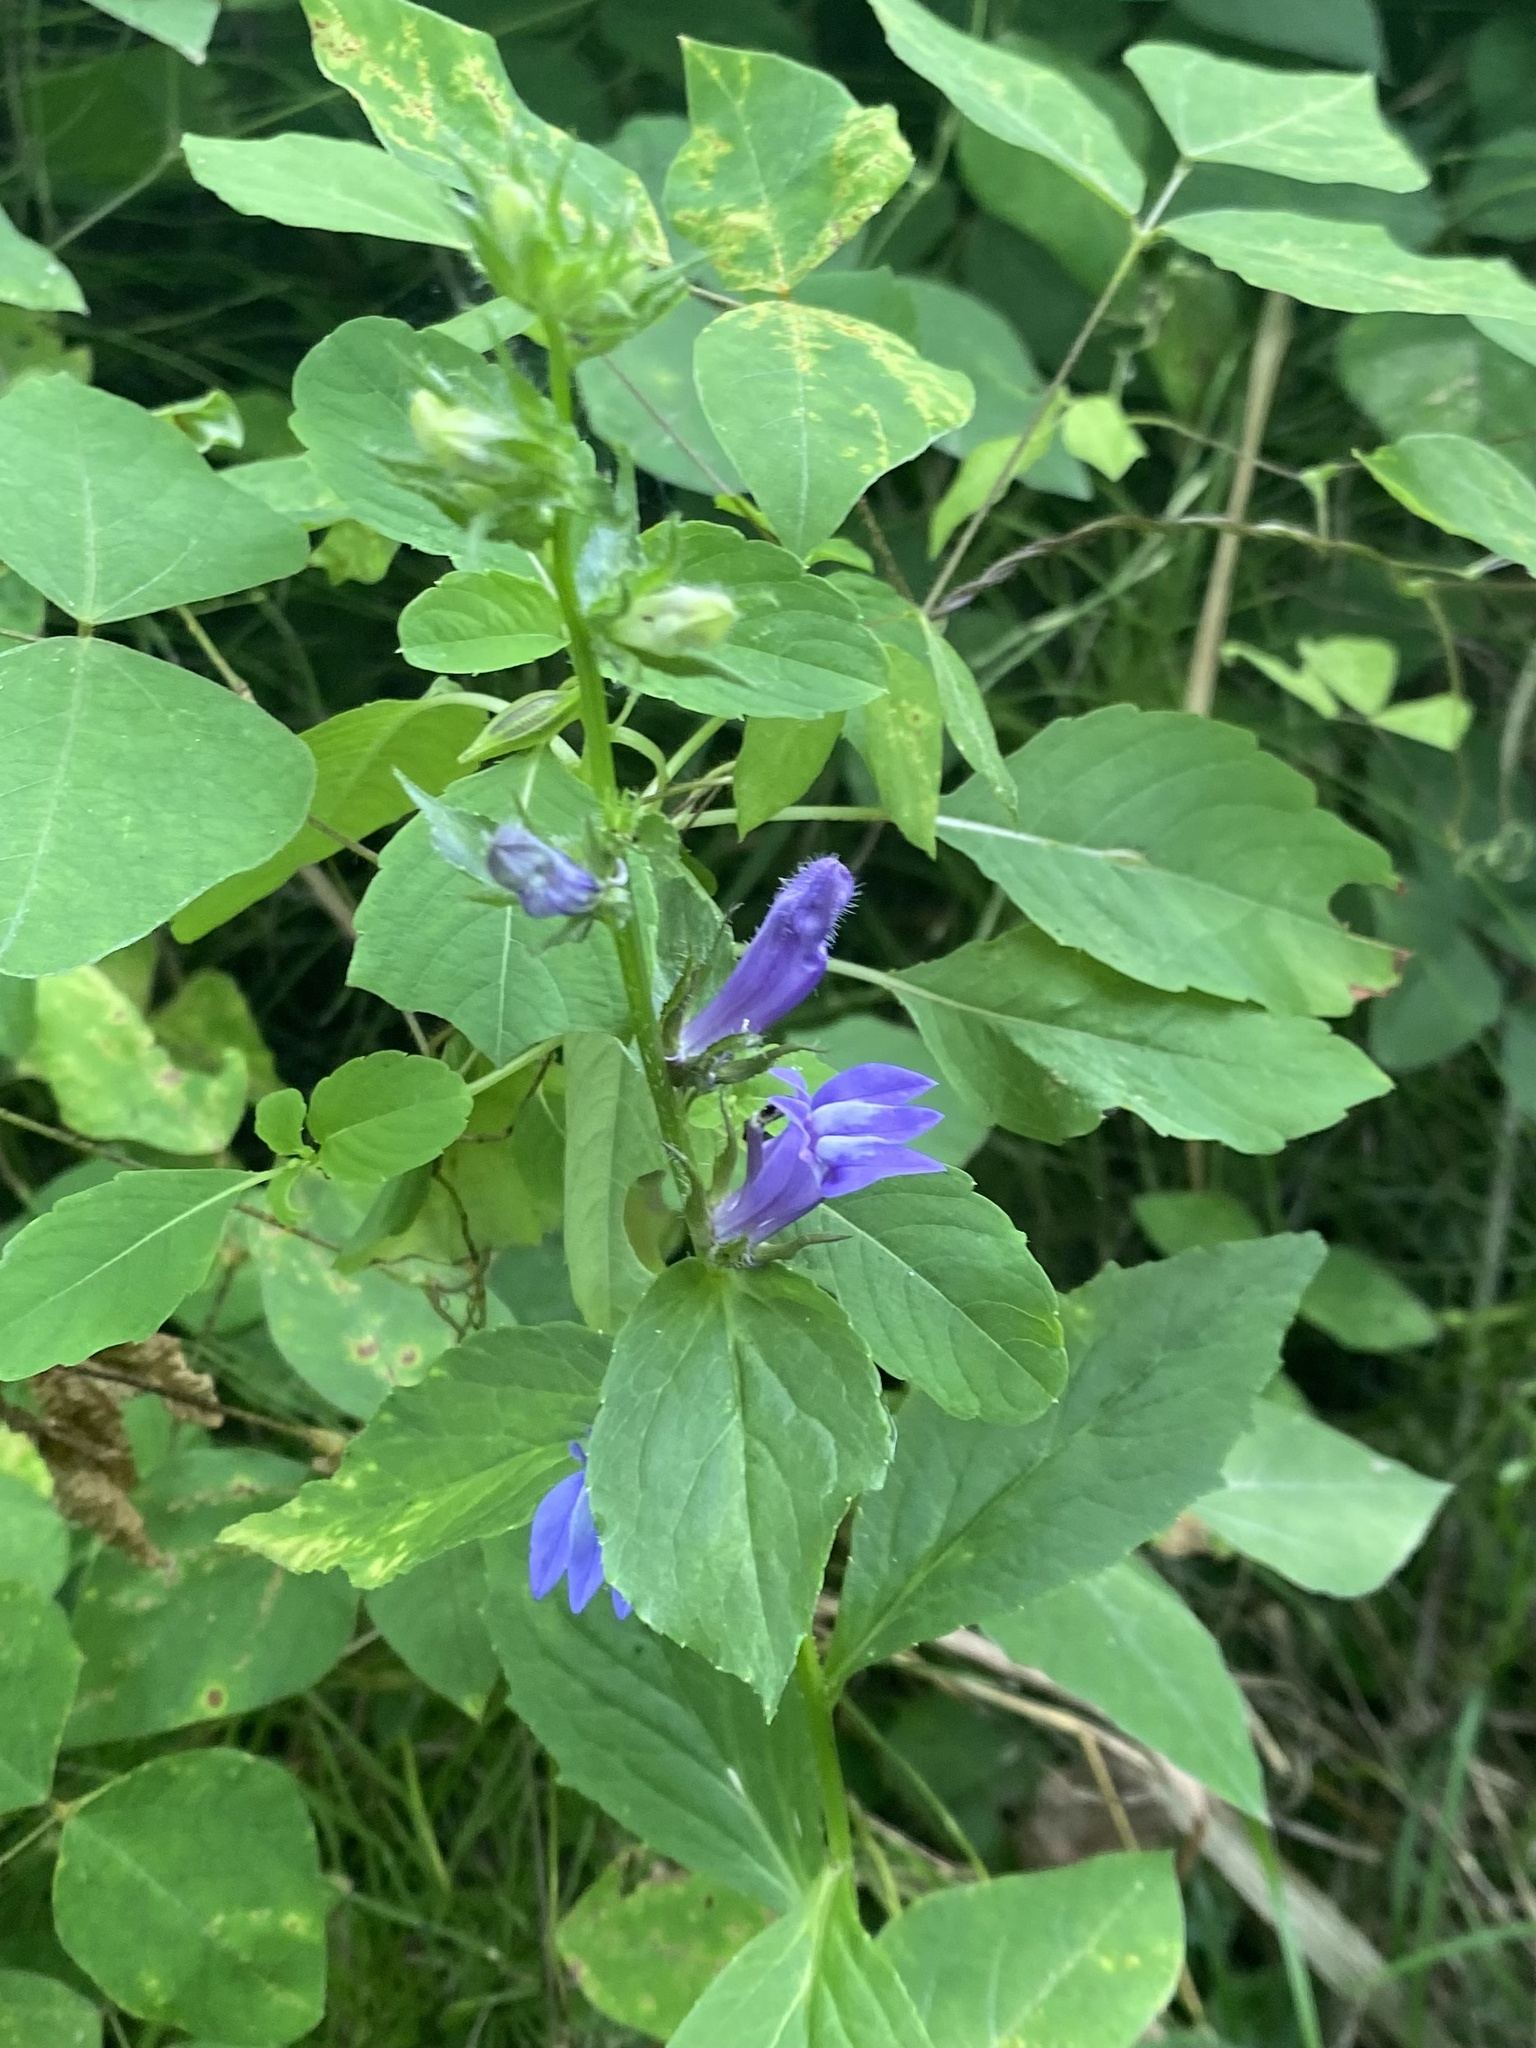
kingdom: Plantae
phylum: Tracheophyta
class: Magnoliopsida
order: Asterales
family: Campanulaceae
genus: Lobelia
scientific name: Lobelia siphilitica
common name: Great lobelia
